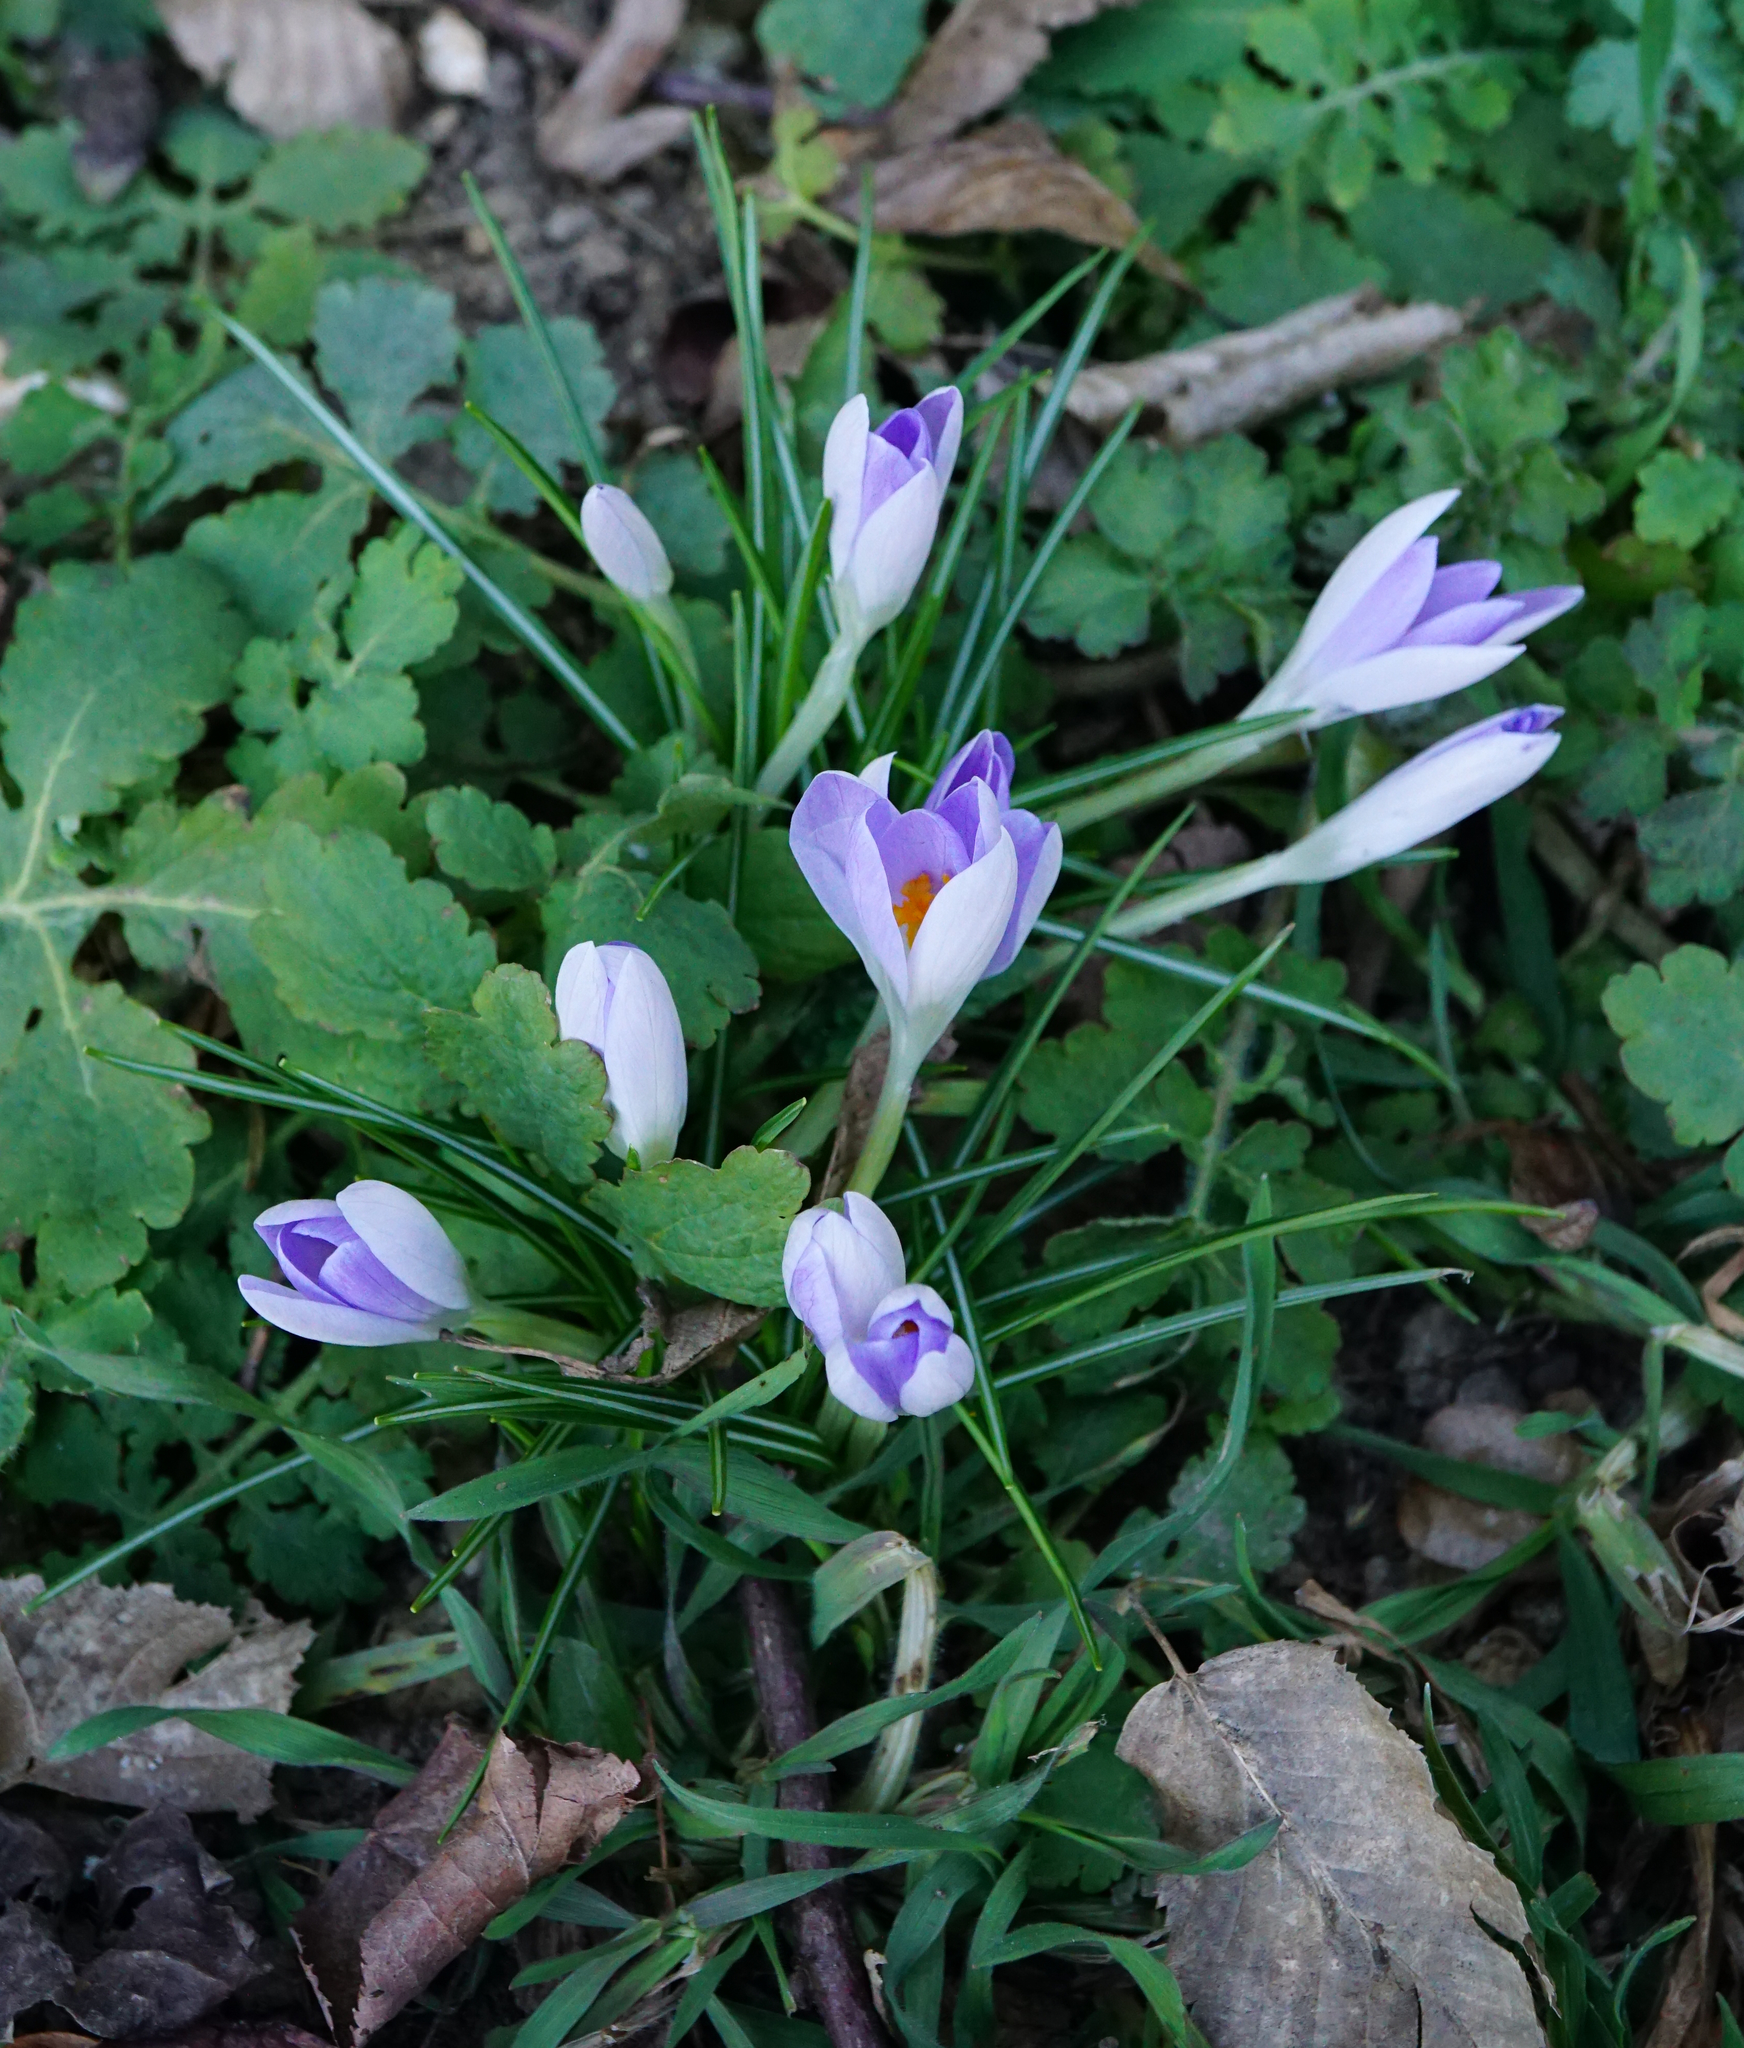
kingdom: Plantae
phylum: Tracheophyta
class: Liliopsida
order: Asparagales
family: Iridaceae
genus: Crocus
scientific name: Crocus tommasinianus
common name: Early crocus
